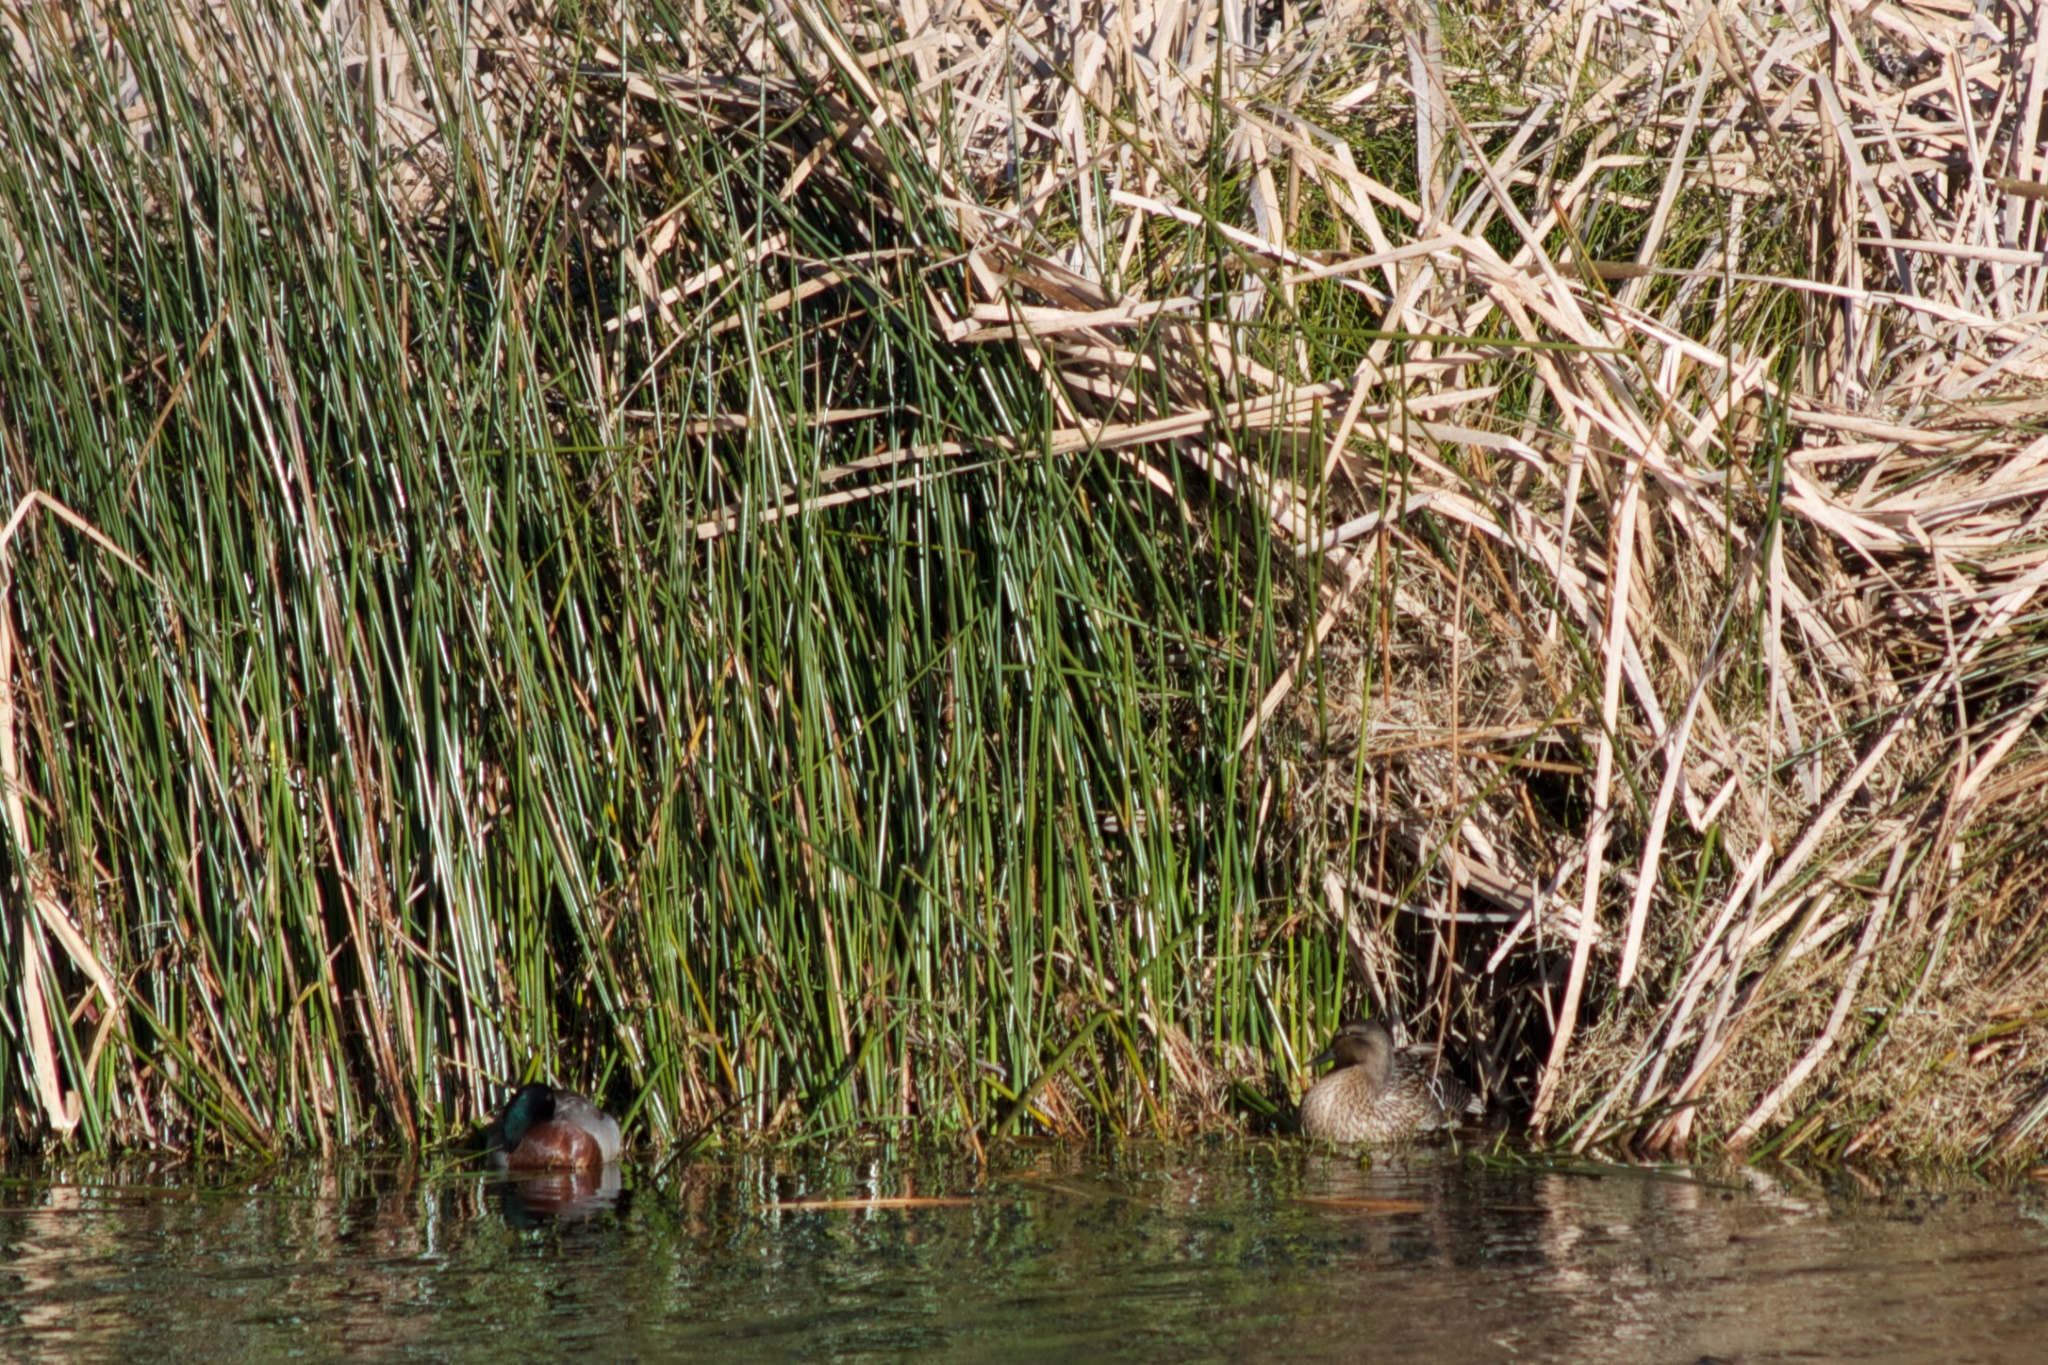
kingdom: Animalia
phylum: Chordata
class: Aves
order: Anseriformes
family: Anatidae
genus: Anas
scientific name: Anas platyrhynchos
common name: Mallard
